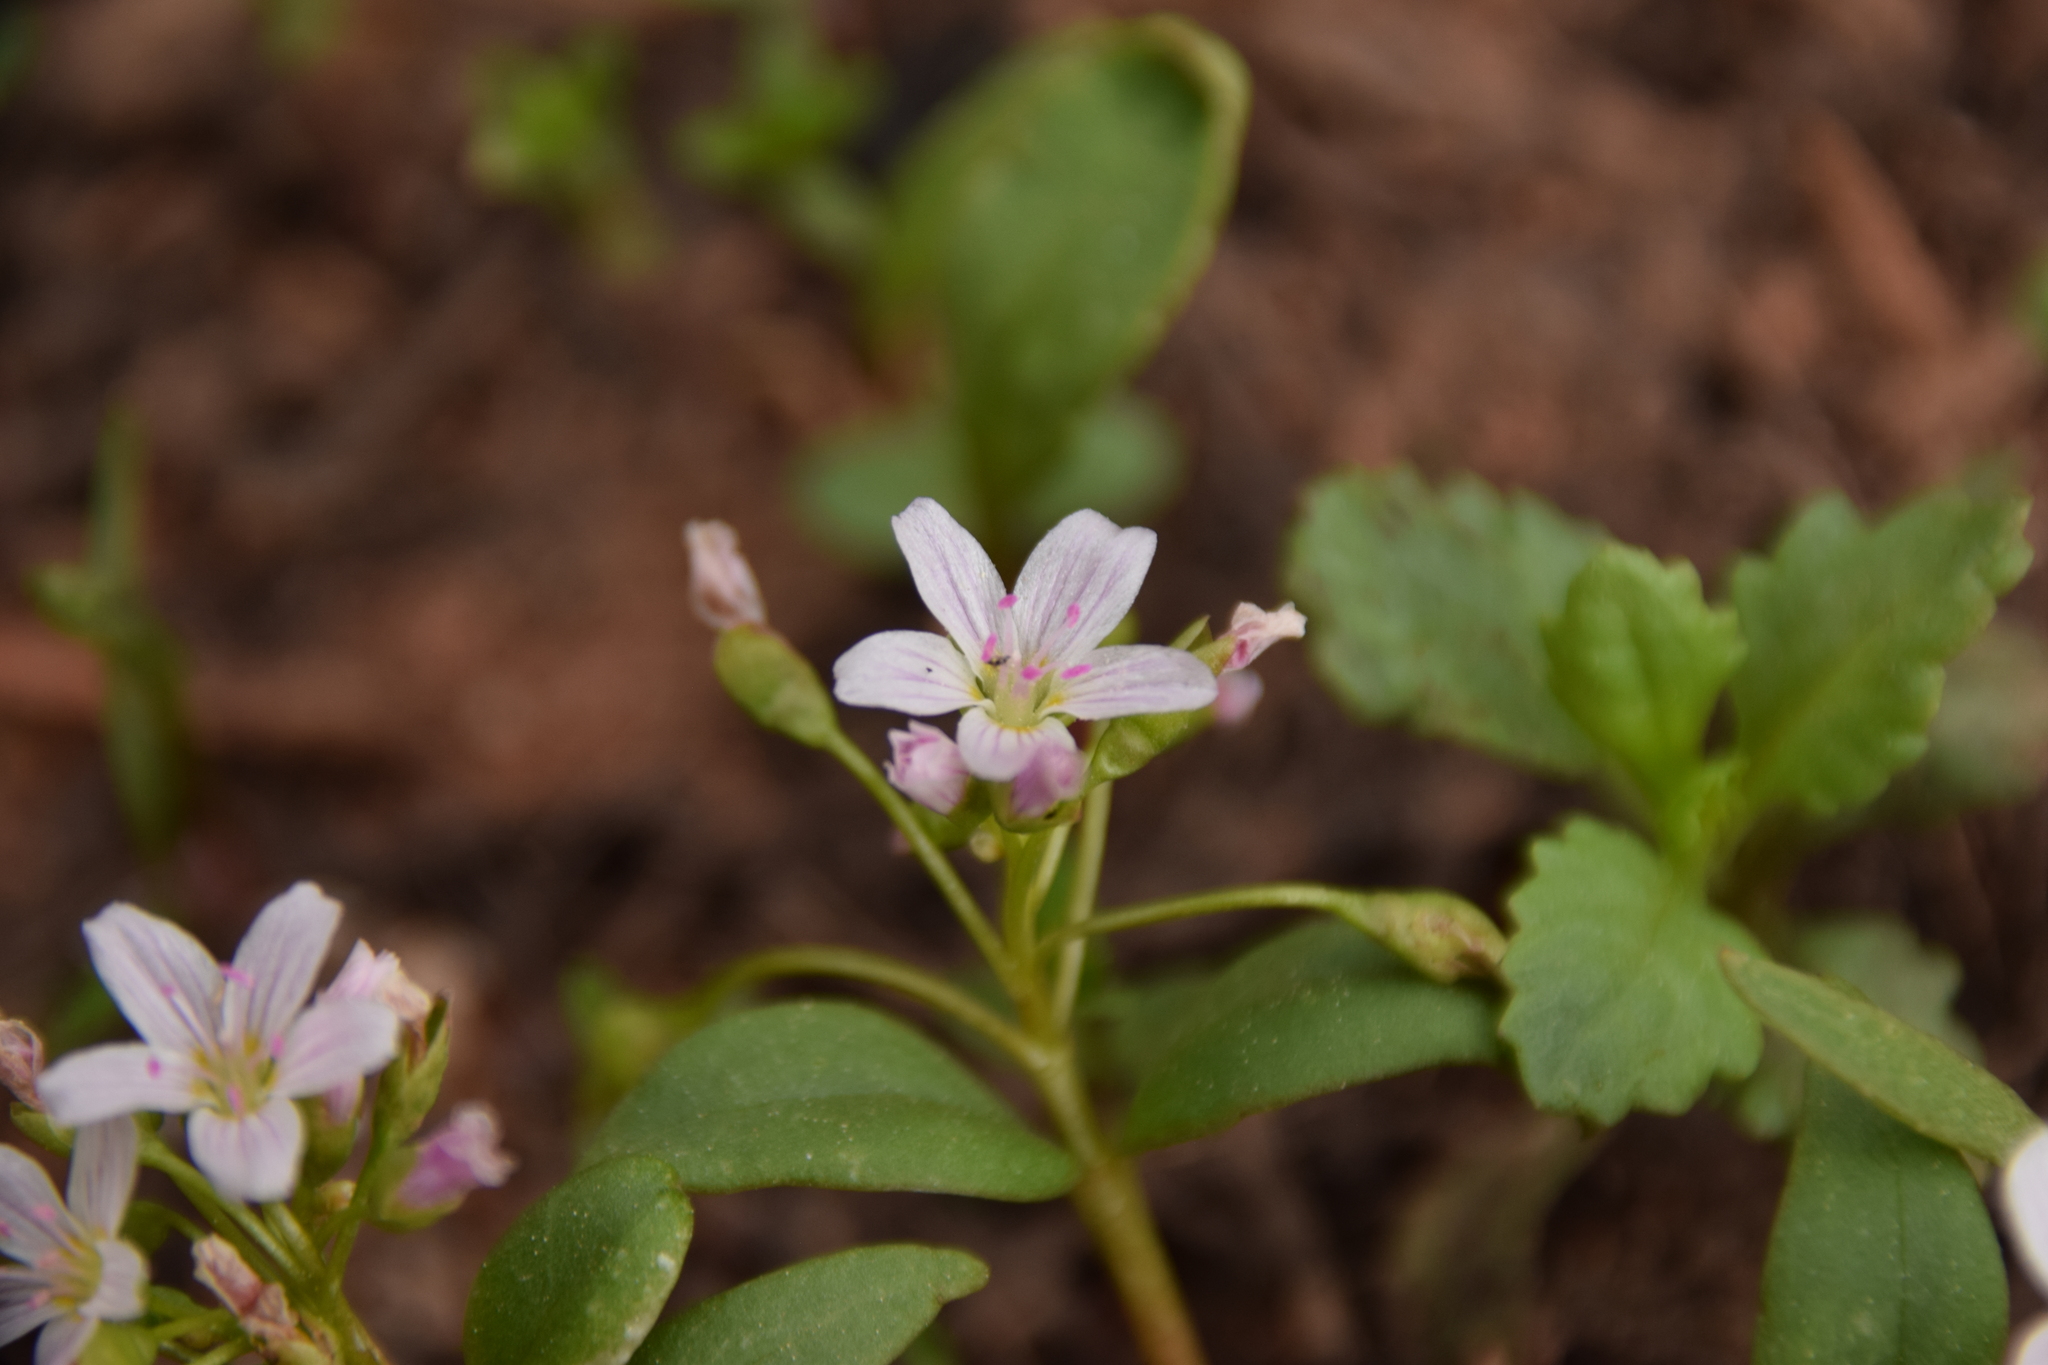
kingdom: Plantae
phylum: Tracheophyta
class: Magnoliopsida
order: Caryophyllales
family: Montiaceae
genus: Claytonia
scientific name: Claytonia lanceolata
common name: Western spring-beauty
